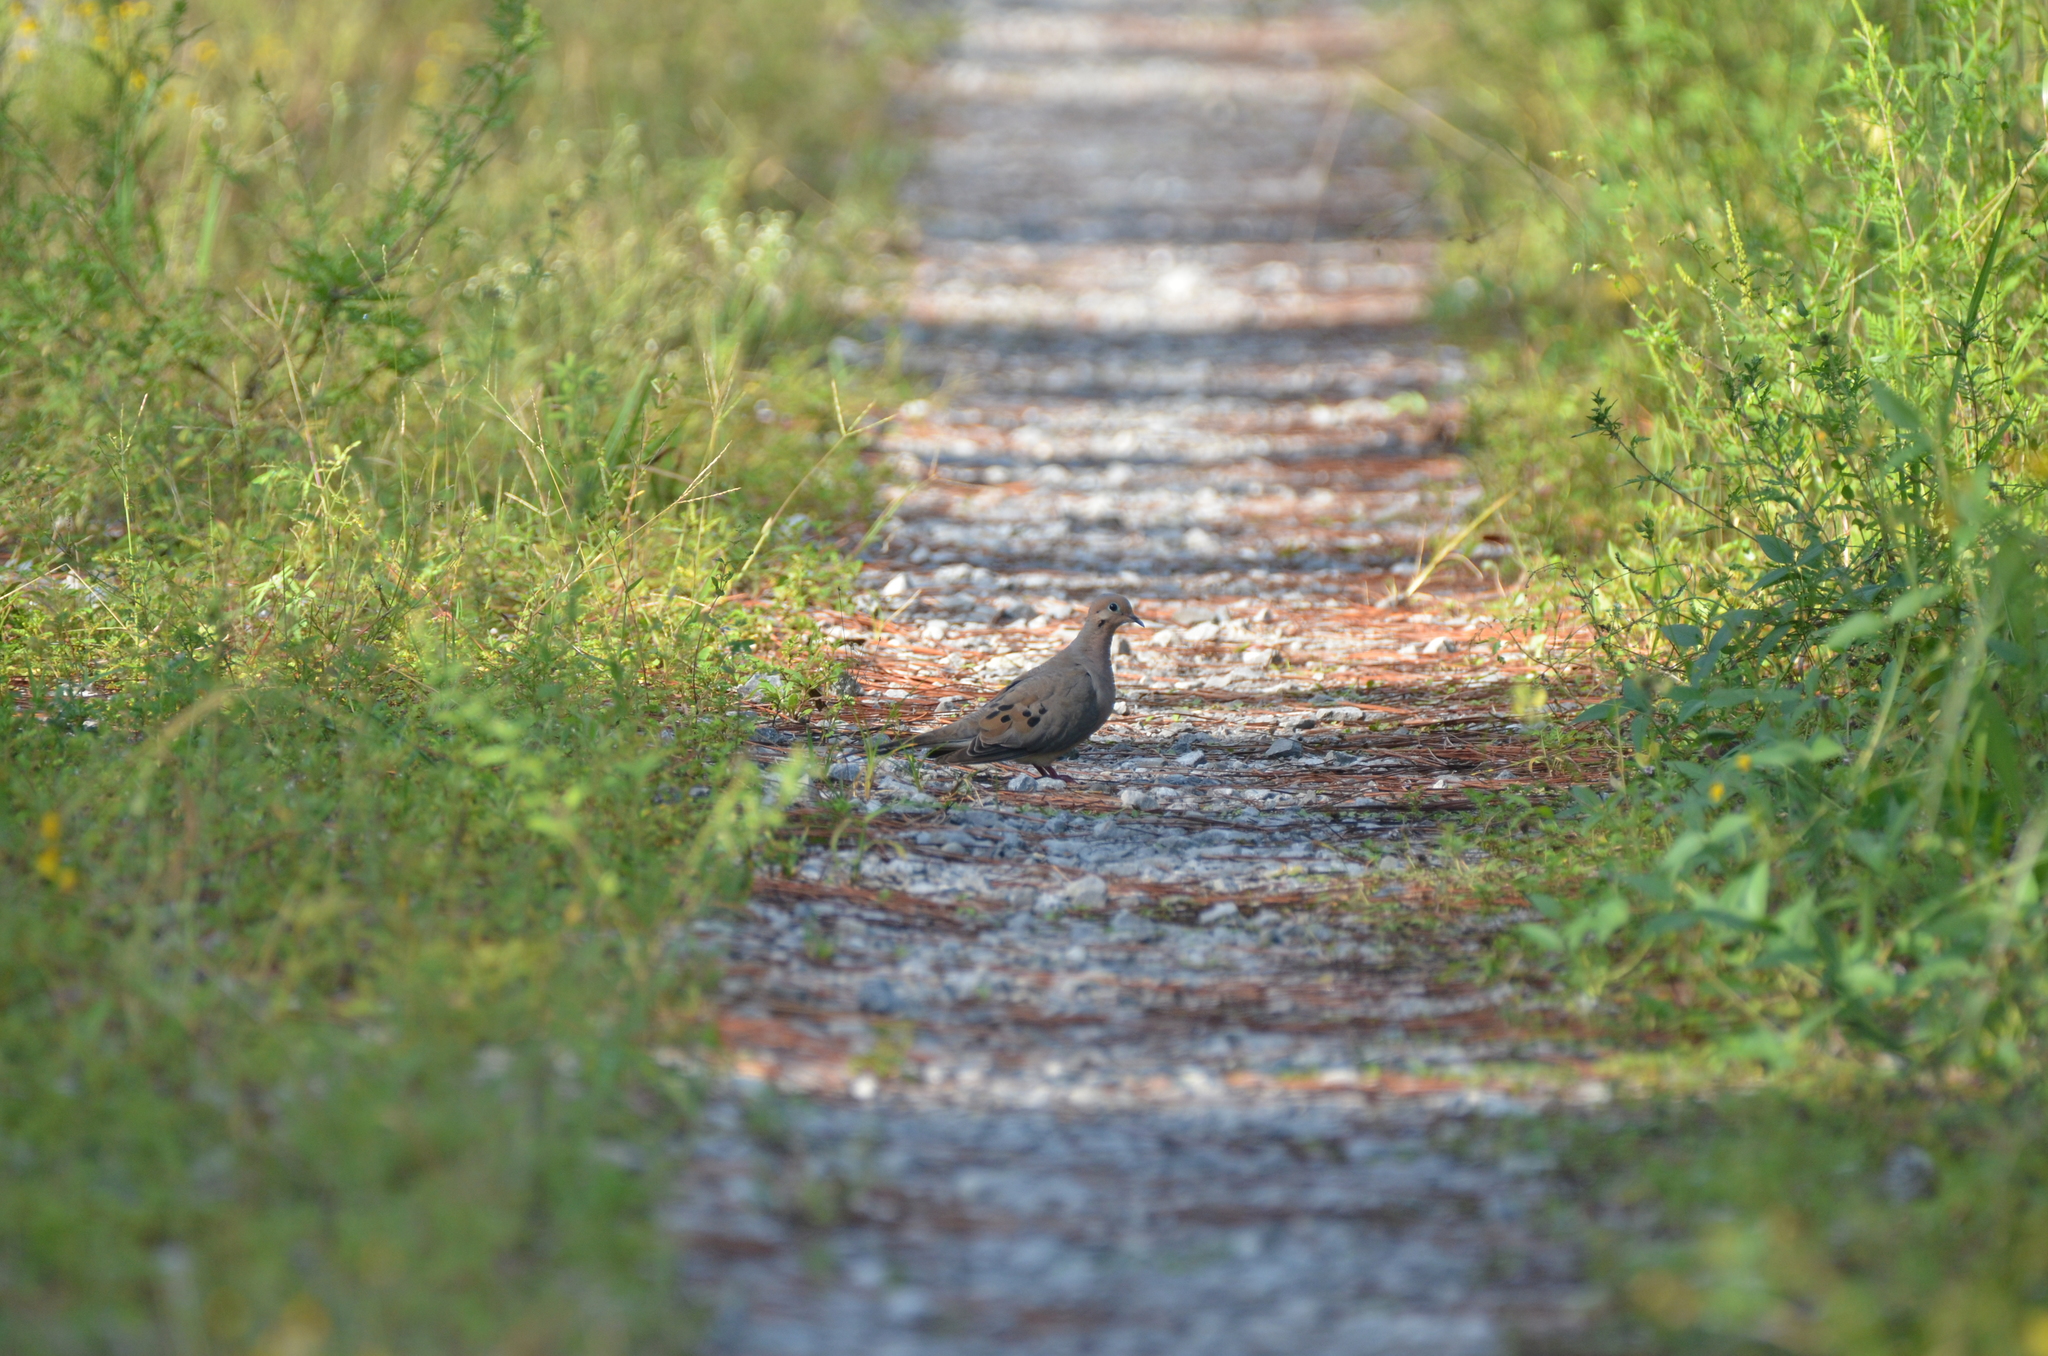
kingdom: Animalia
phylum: Chordata
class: Aves
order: Columbiformes
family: Columbidae
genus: Zenaida
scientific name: Zenaida macroura
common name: Mourning dove
